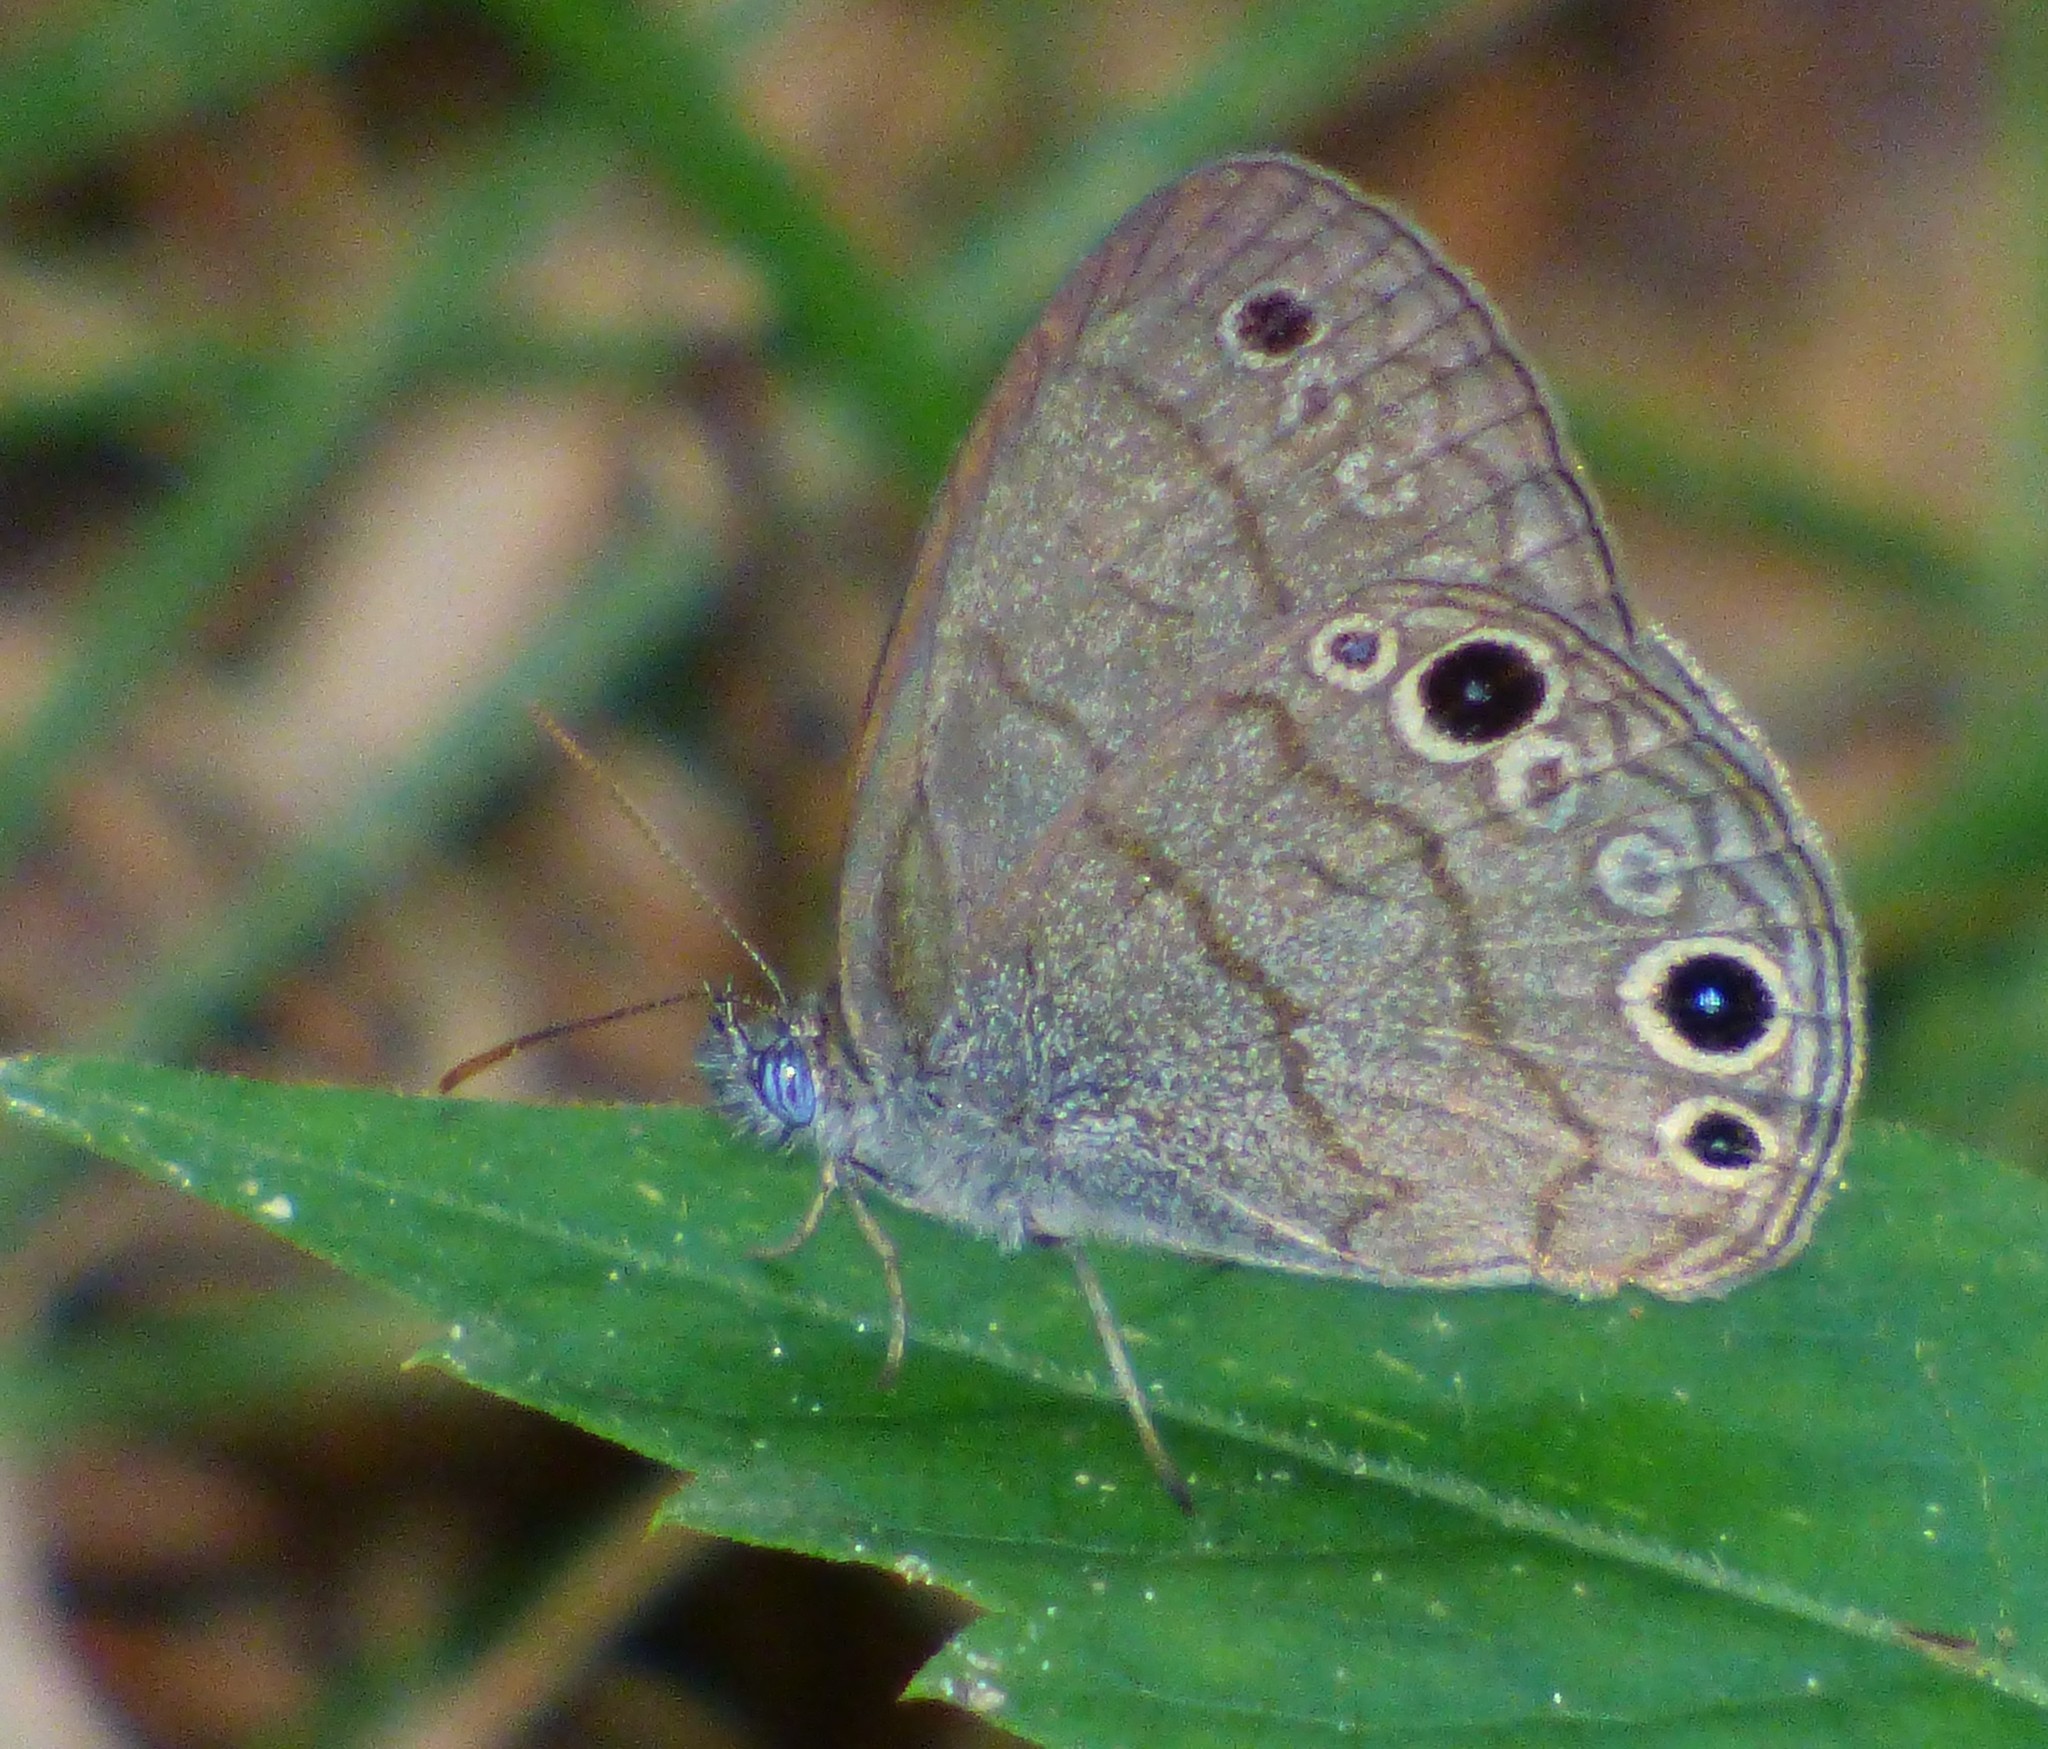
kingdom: Animalia
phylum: Arthropoda
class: Insecta
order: Lepidoptera
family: Nymphalidae
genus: Hermeuptychia
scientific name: Hermeuptychia hermes
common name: Hermes satyr
